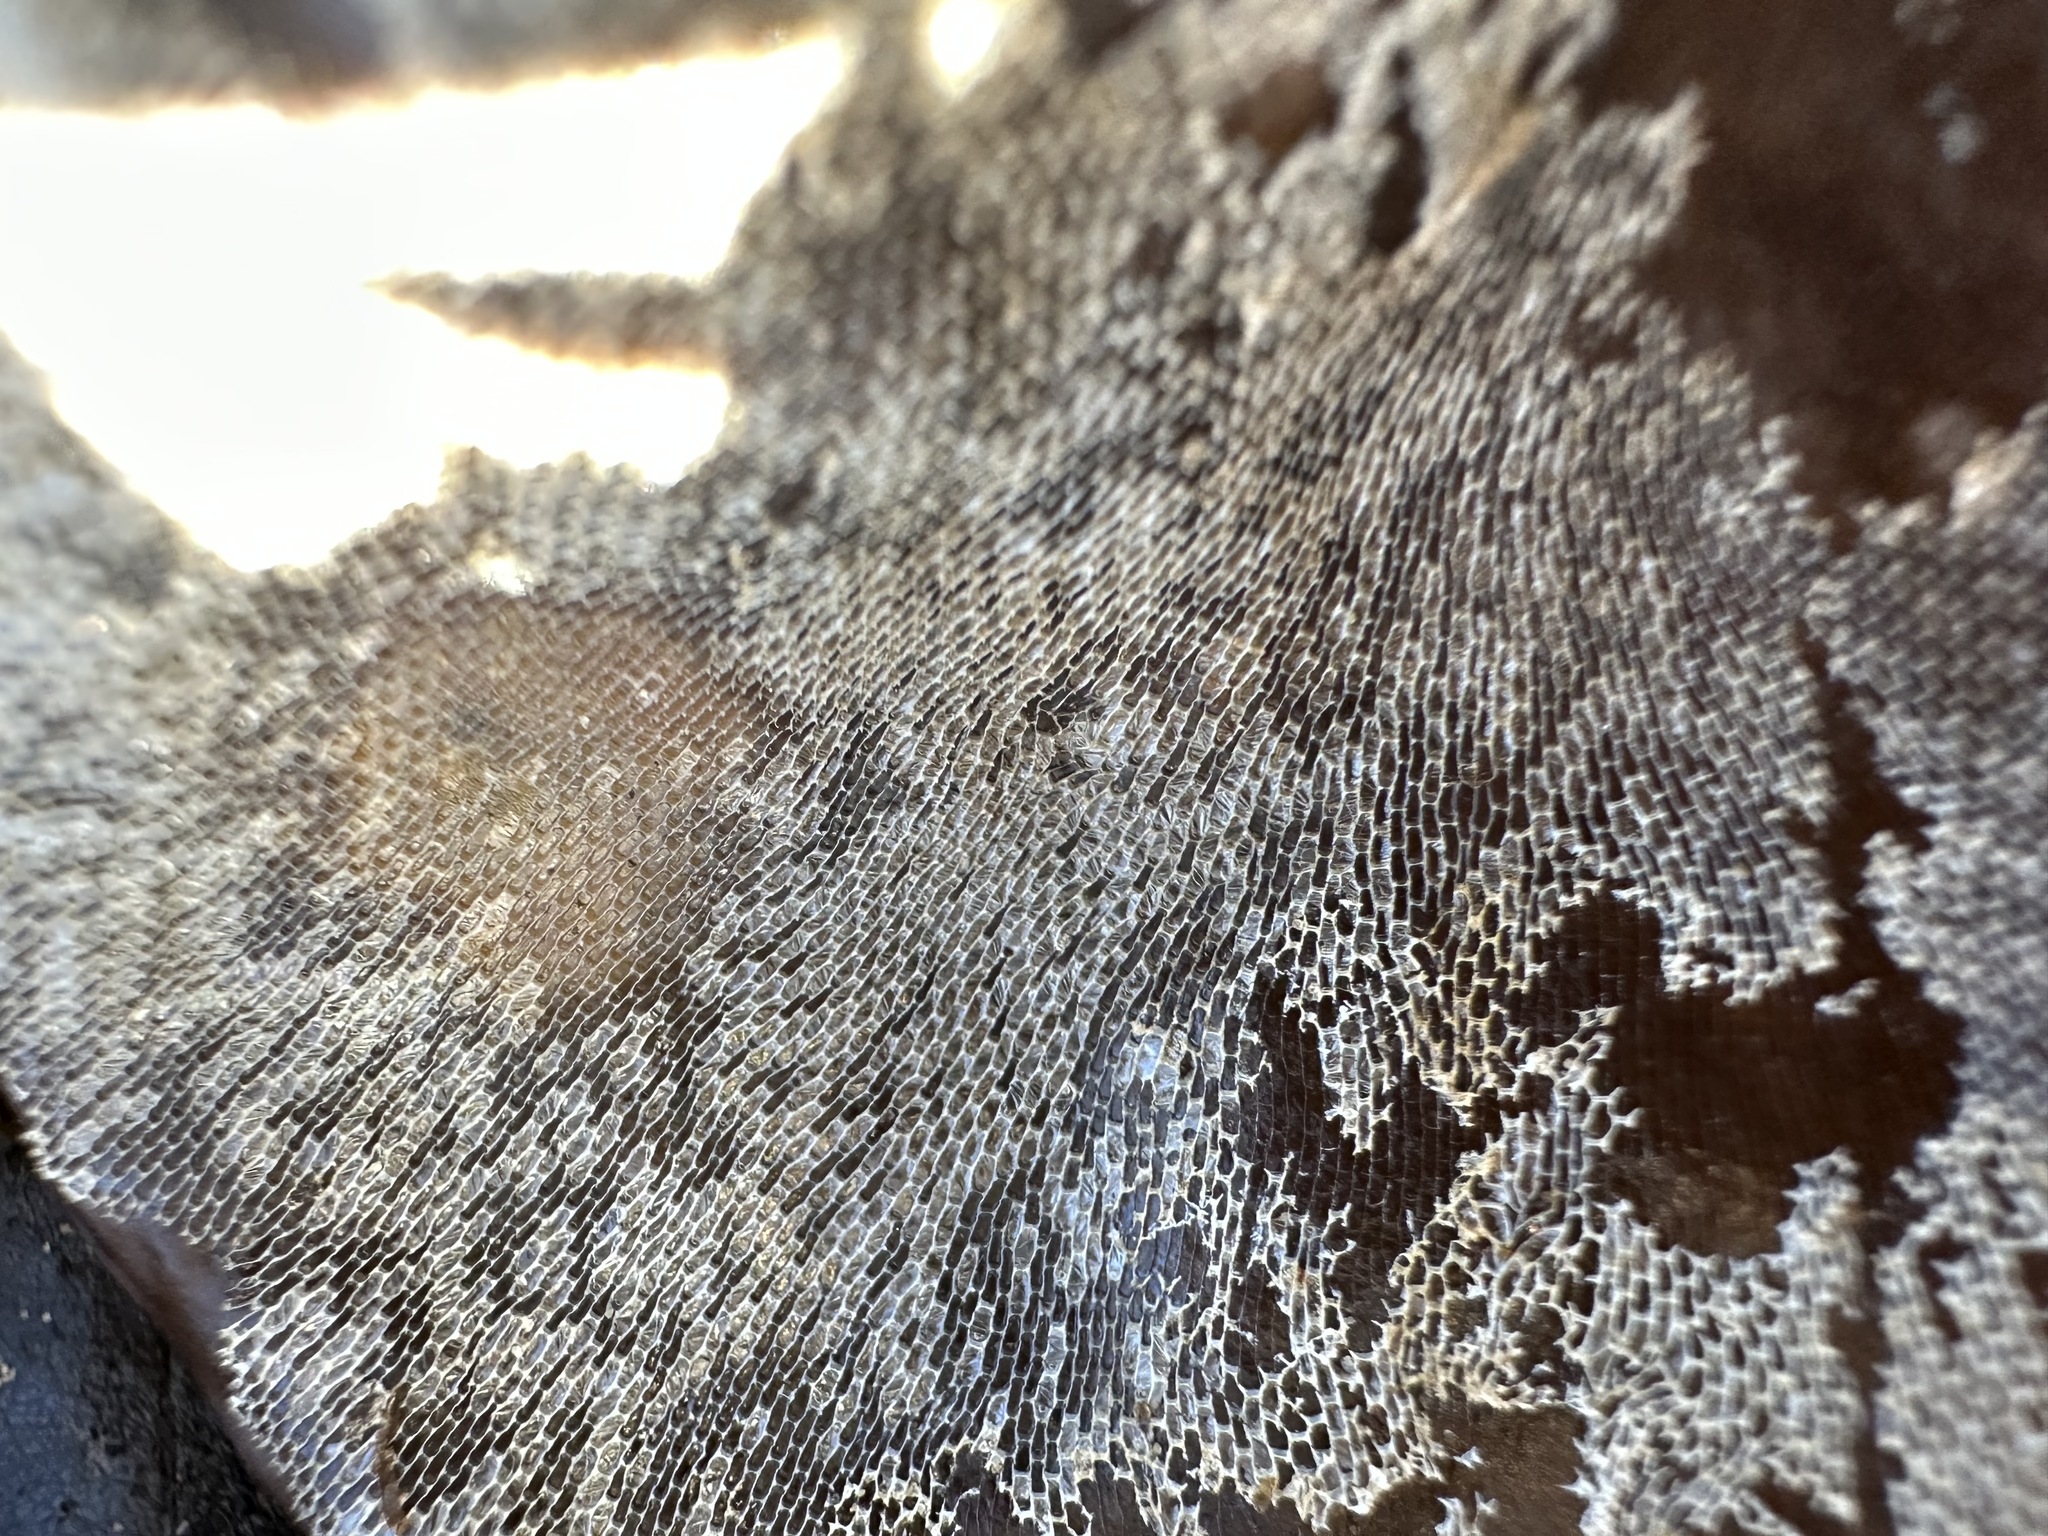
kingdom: Animalia
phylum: Bryozoa
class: Gymnolaemata
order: Cheilostomatida
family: Membraniporidae
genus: Membranipora
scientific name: Membranipora membranacea
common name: Sea mat
